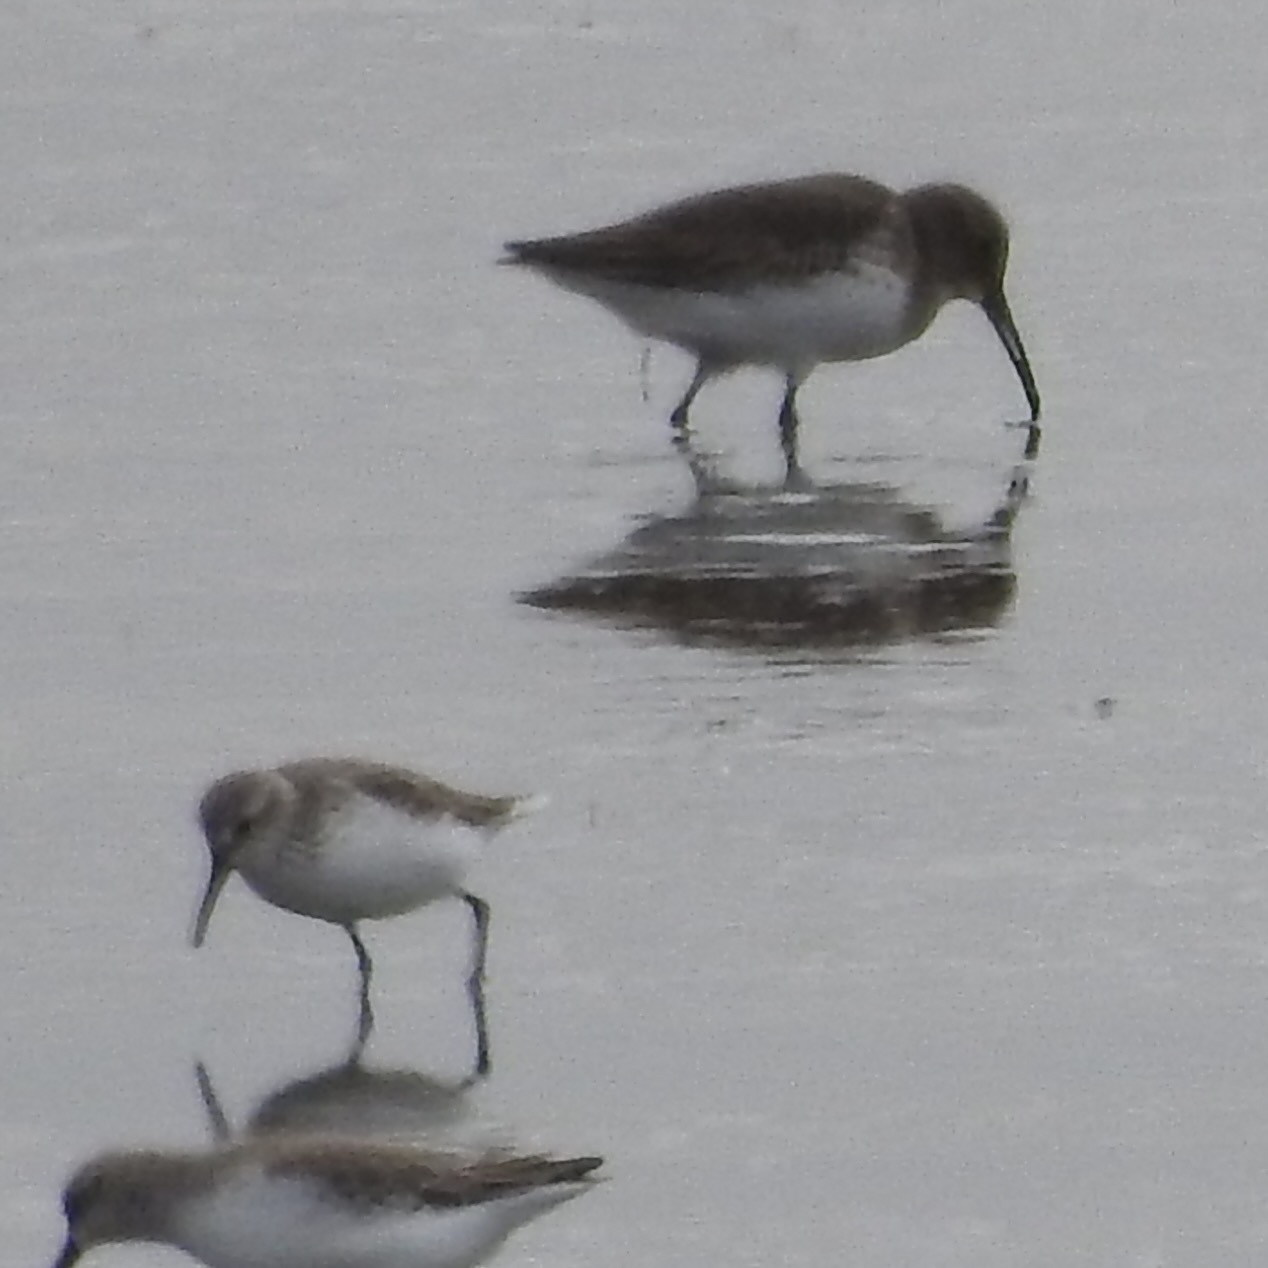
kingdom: Animalia
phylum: Chordata
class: Aves
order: Charadriiformes
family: Scolopacidae
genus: Calidris
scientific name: Calidris alpina
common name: Dunlin
